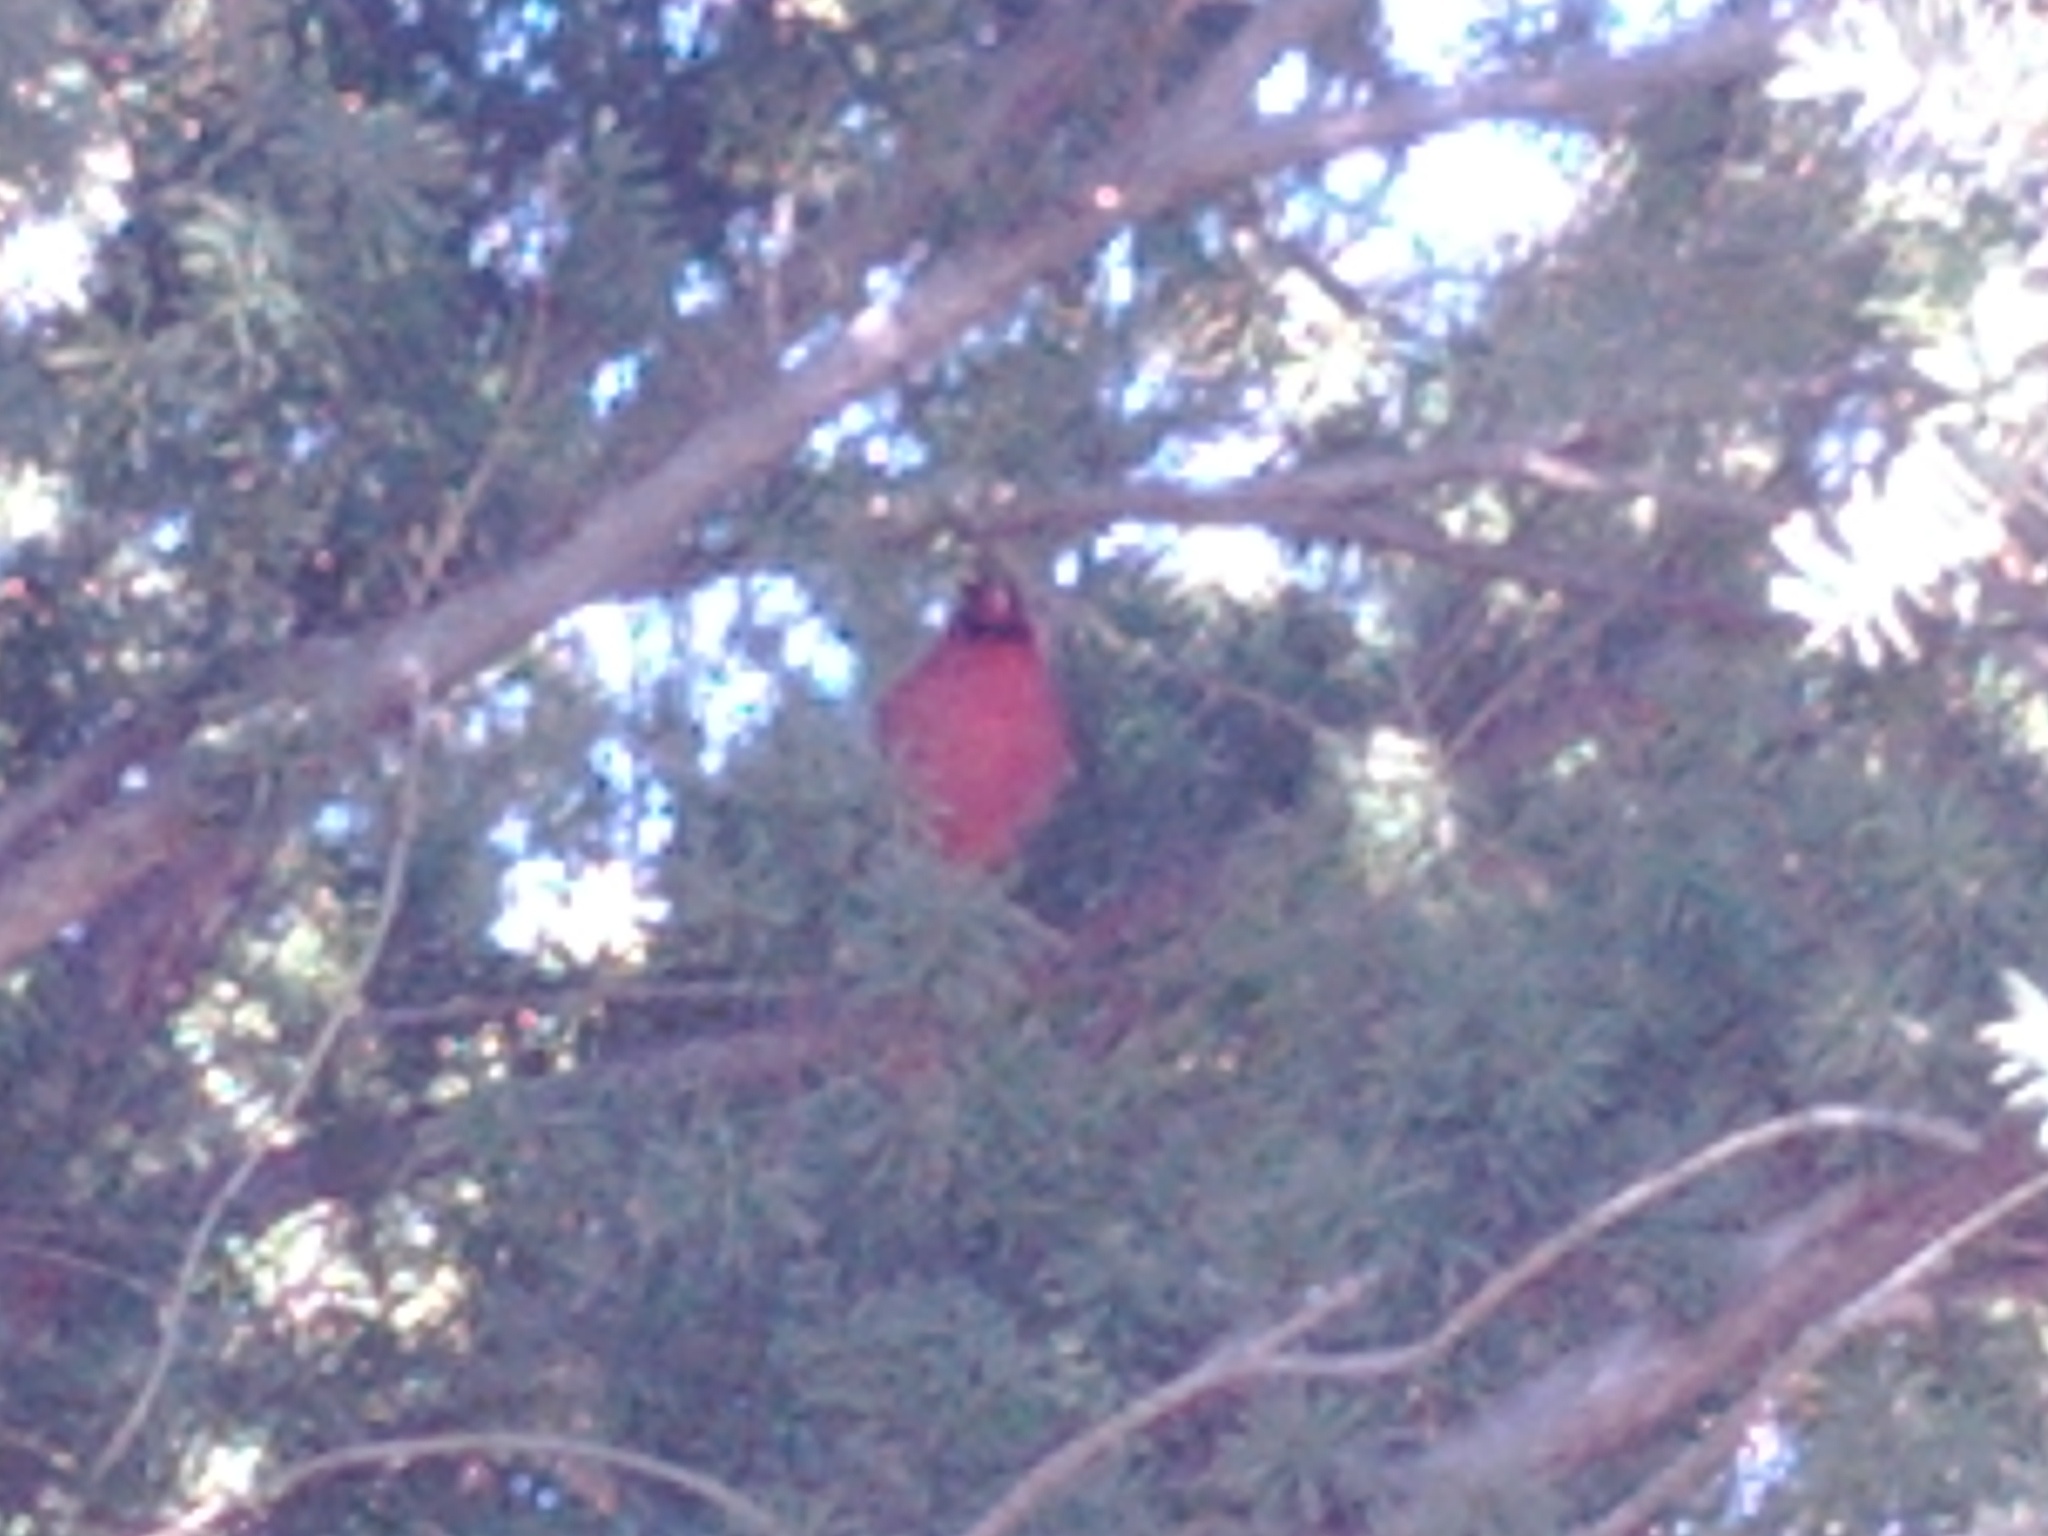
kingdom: Animalia
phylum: Chordata
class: Aves
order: Passeriformes
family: Cardinalidae
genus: Cardinalis
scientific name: Cardinalis cardinalis
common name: Northern cardinal
